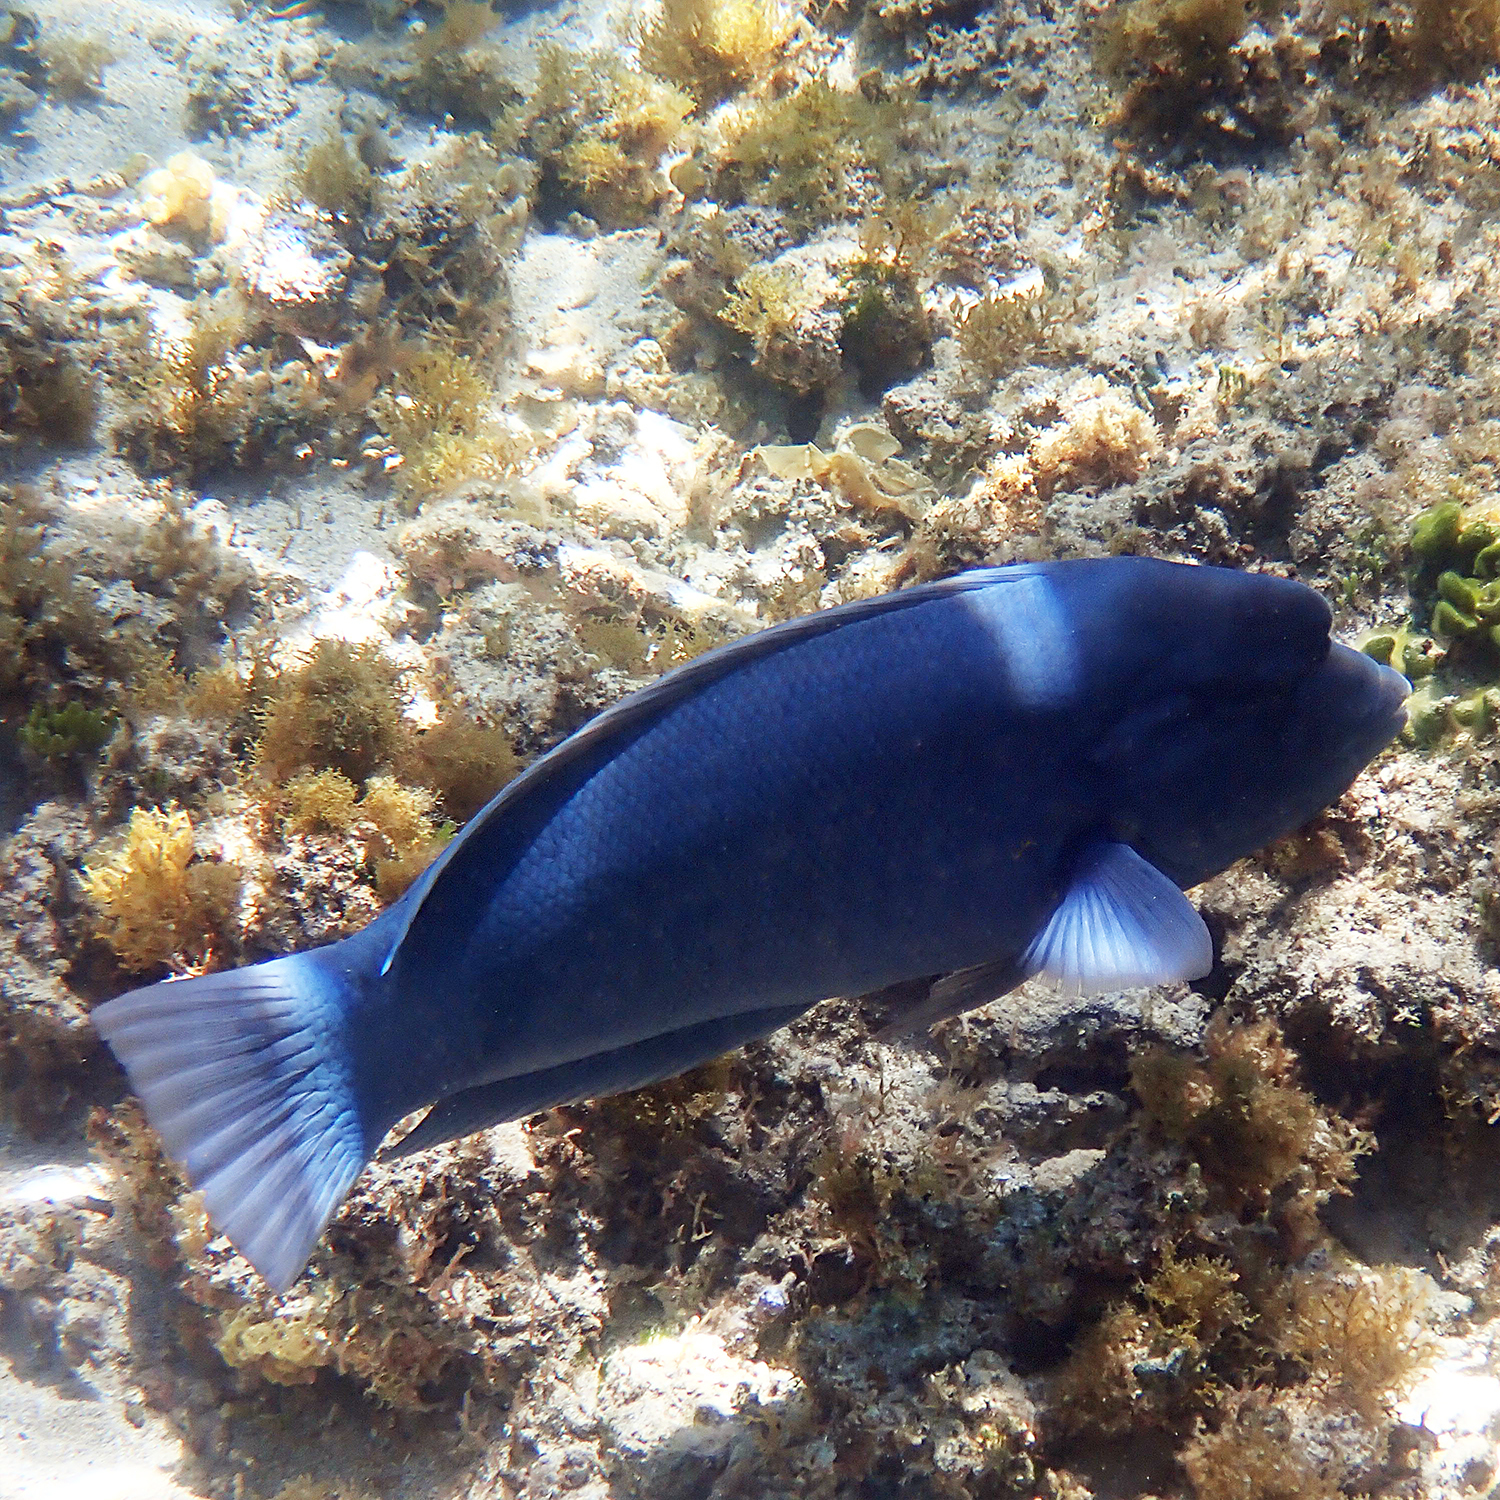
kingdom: Animalia
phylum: Chordata
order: Perciformes
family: Labridae
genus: Coris
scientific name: Coris bulbifrons
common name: Doubleheader
